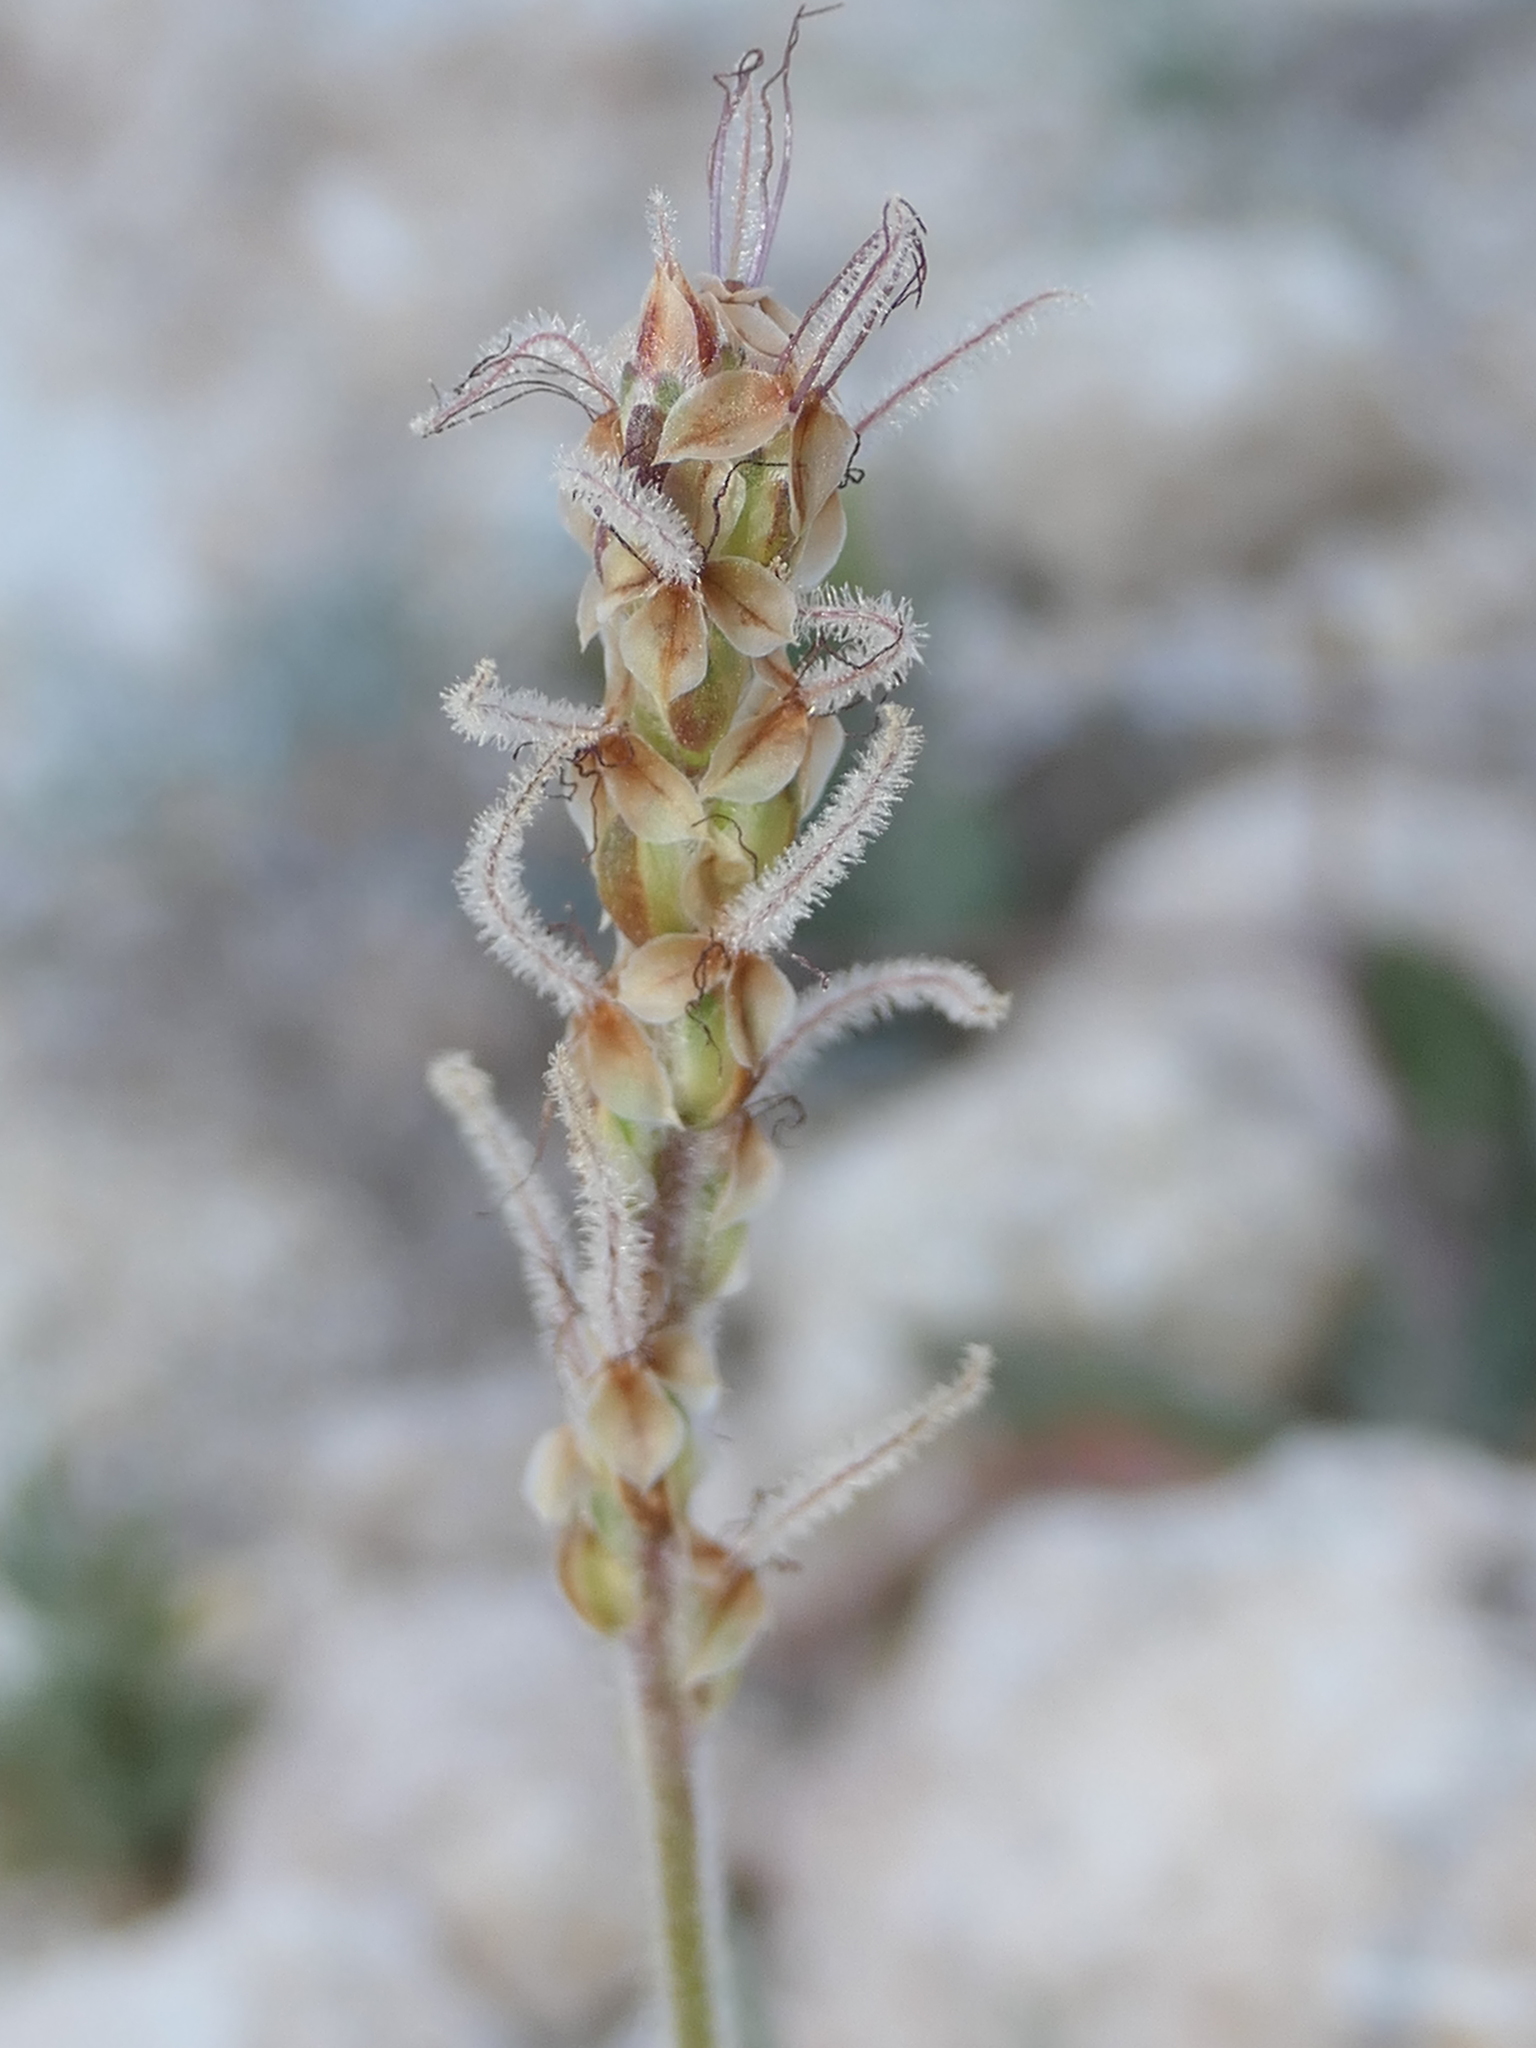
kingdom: Plantae
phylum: Tracheophyta
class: Magnoliopsida
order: Lamiales
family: Plantaginaceae
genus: Plantago
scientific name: Plantago albicans
